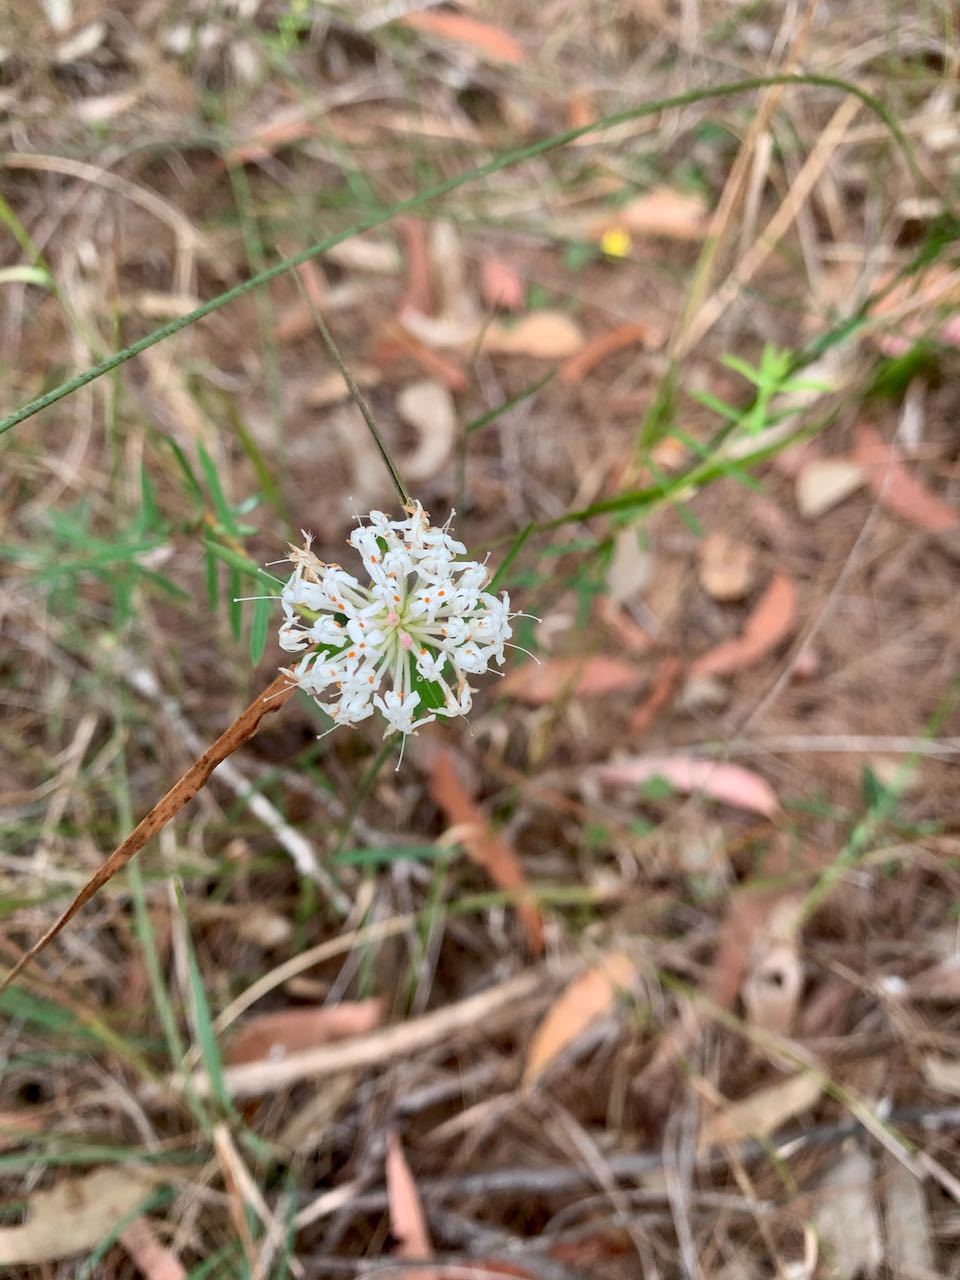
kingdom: Plantae
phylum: Tracheophyta
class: Magnoliopsida
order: Malvales
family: Thymelaeaceae
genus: Pimelea
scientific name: Pimelea linifolia
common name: Queen-of-the-bush
